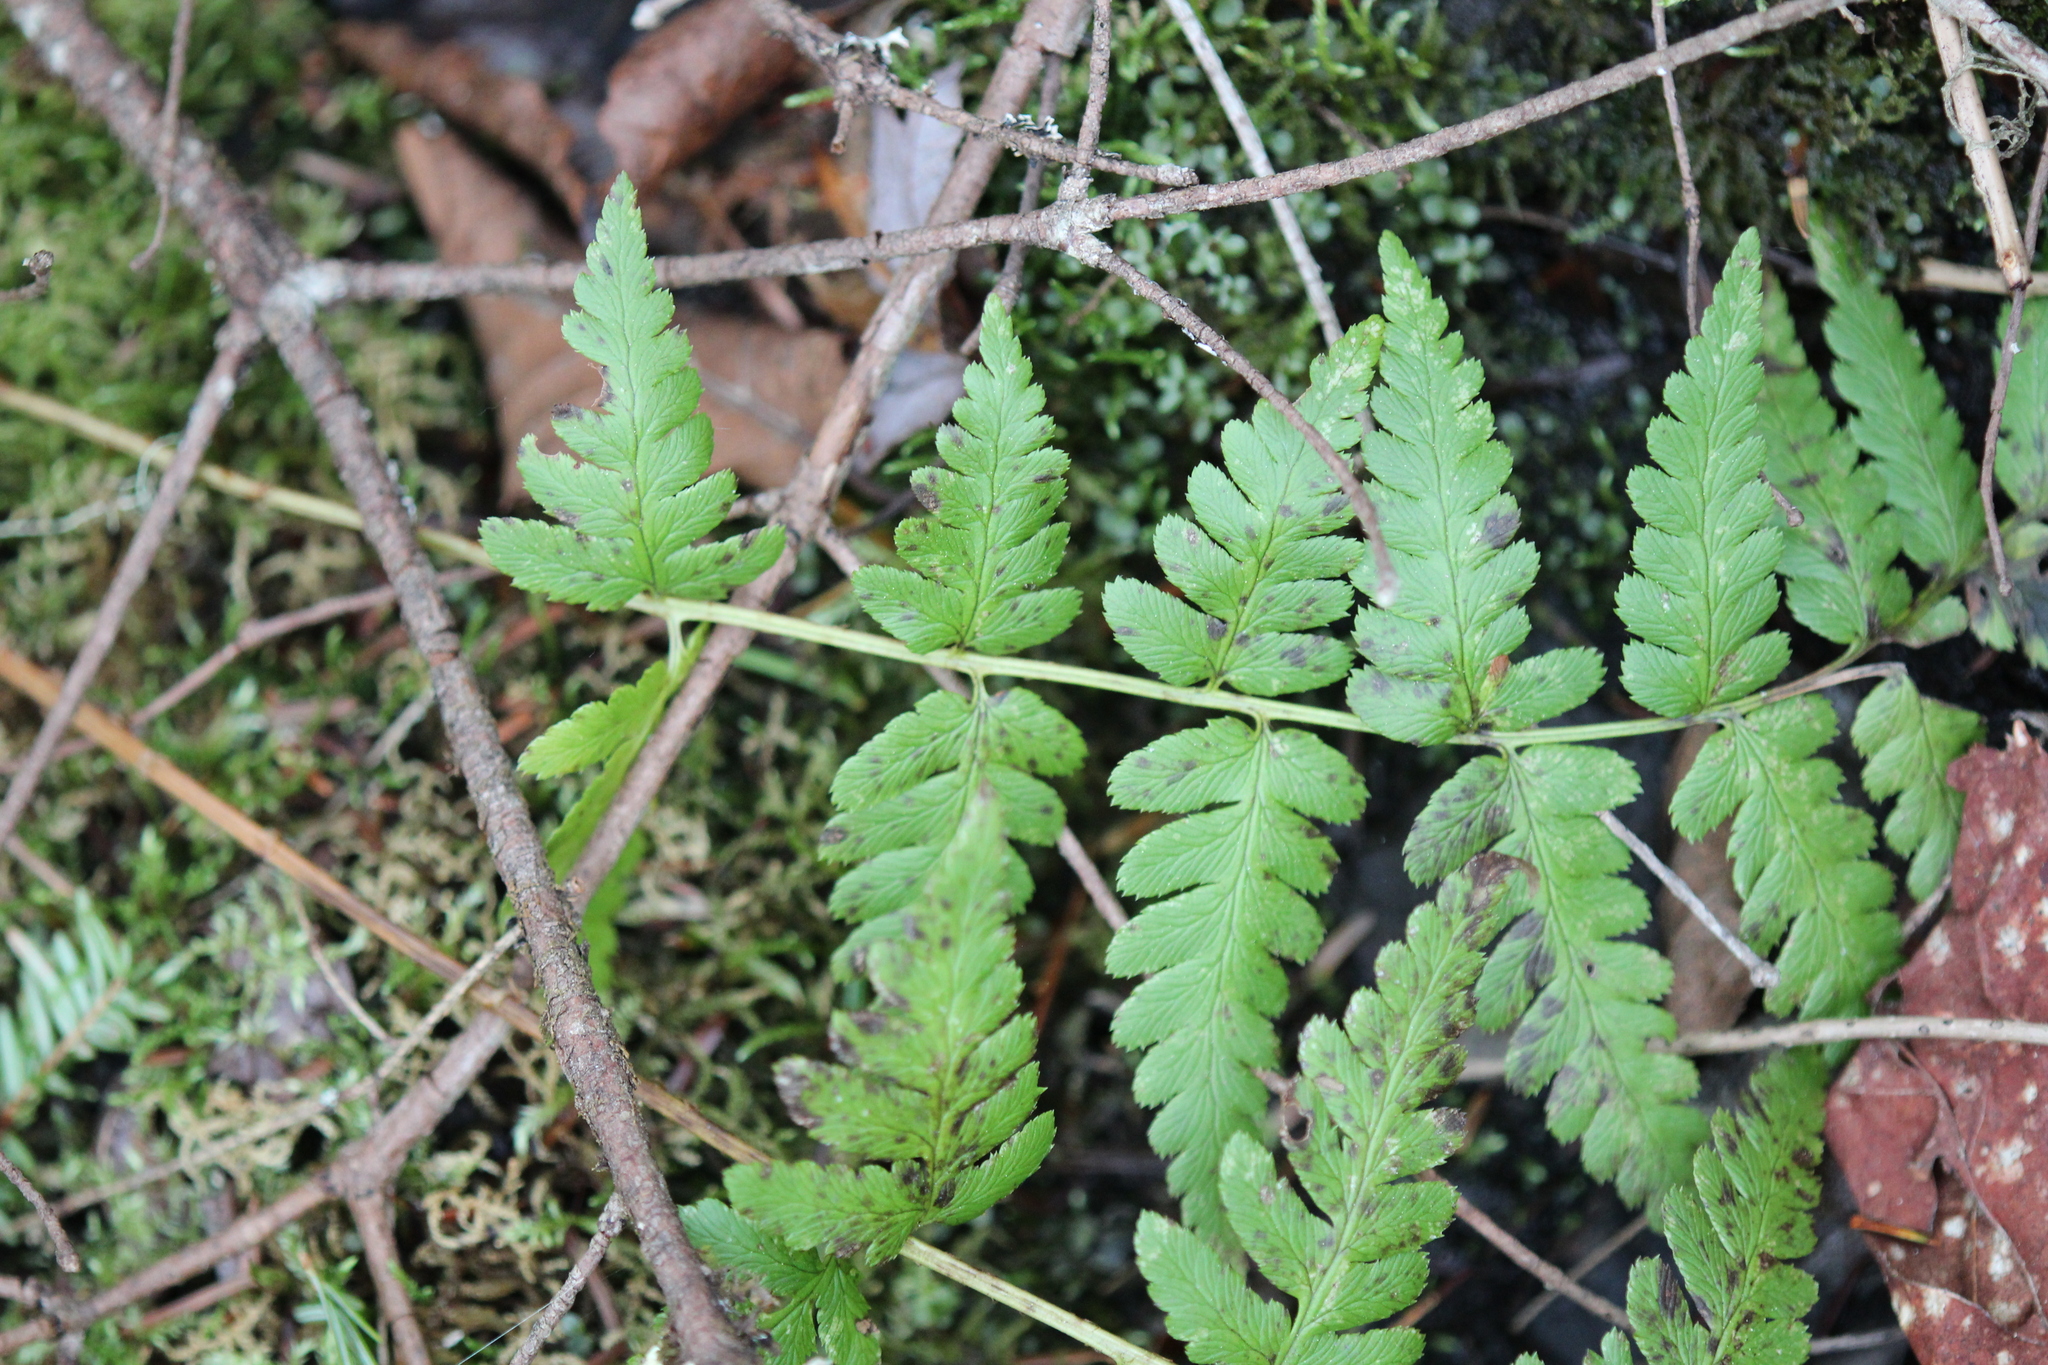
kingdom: Plantae
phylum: Tracheophyta
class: Polypodiopsida
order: Polypodiales
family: Dryopteridaceae
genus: Dryopteris
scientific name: Dryopteris cristata
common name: Crested wood fern
